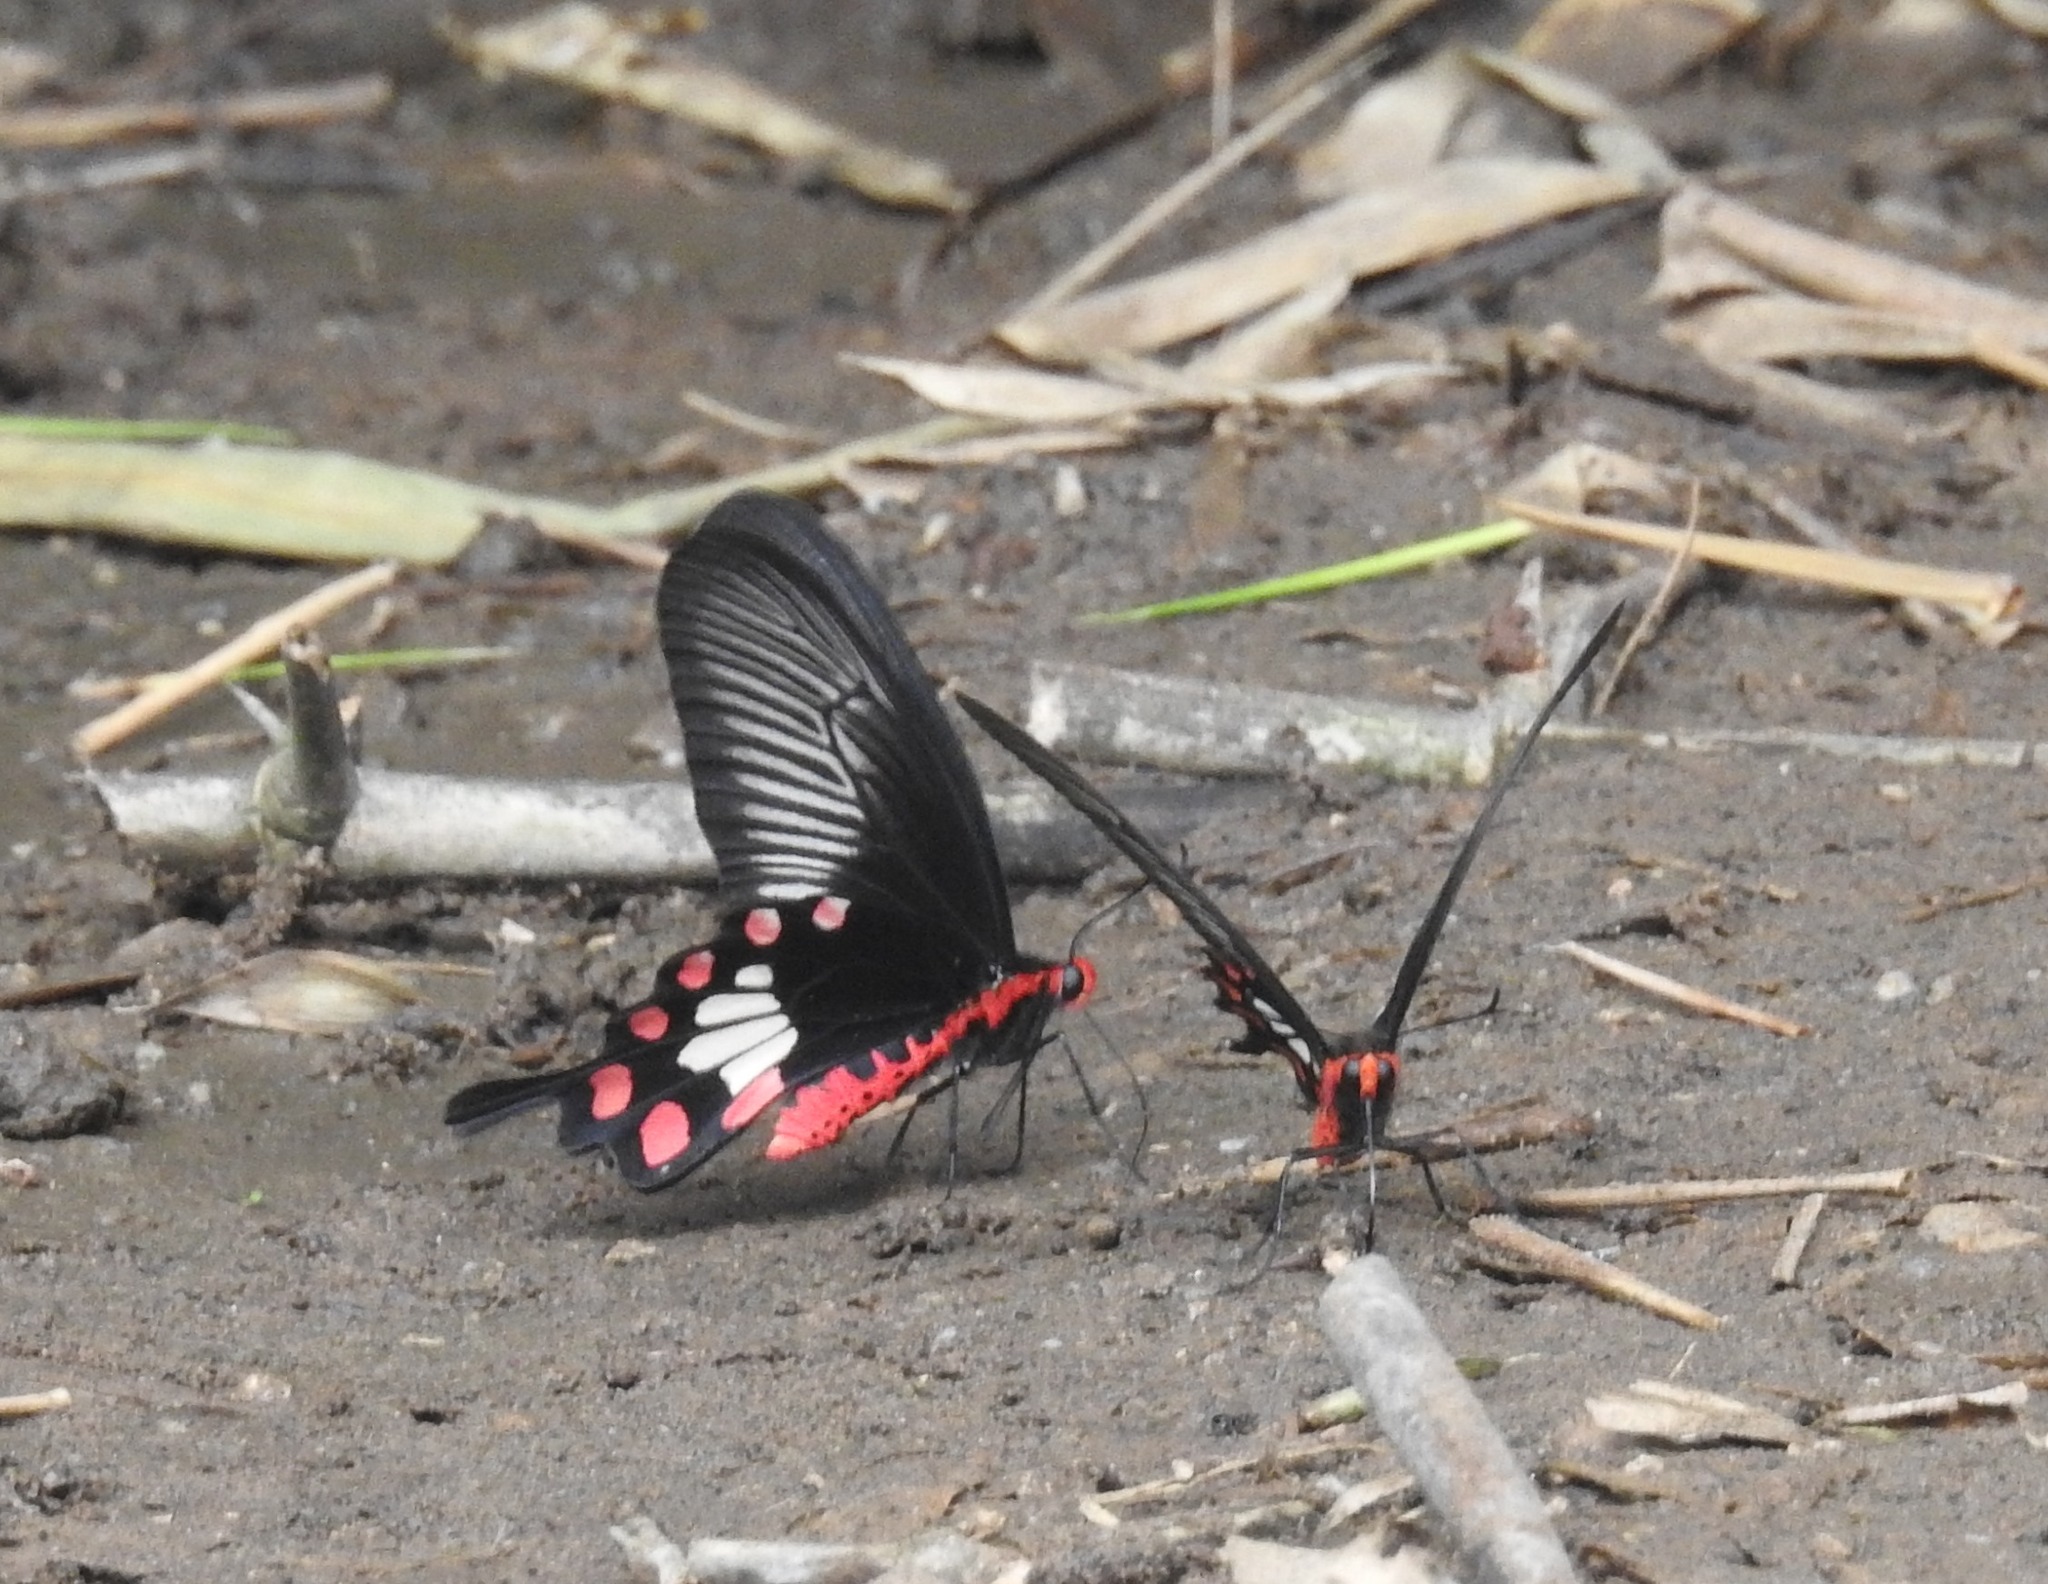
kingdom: Animalia
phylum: Arthropoda
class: Insecta
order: Lepidoptera
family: Papilionidae
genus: Pachliopta
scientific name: Pachliopta aristolochiae
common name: Common rose
